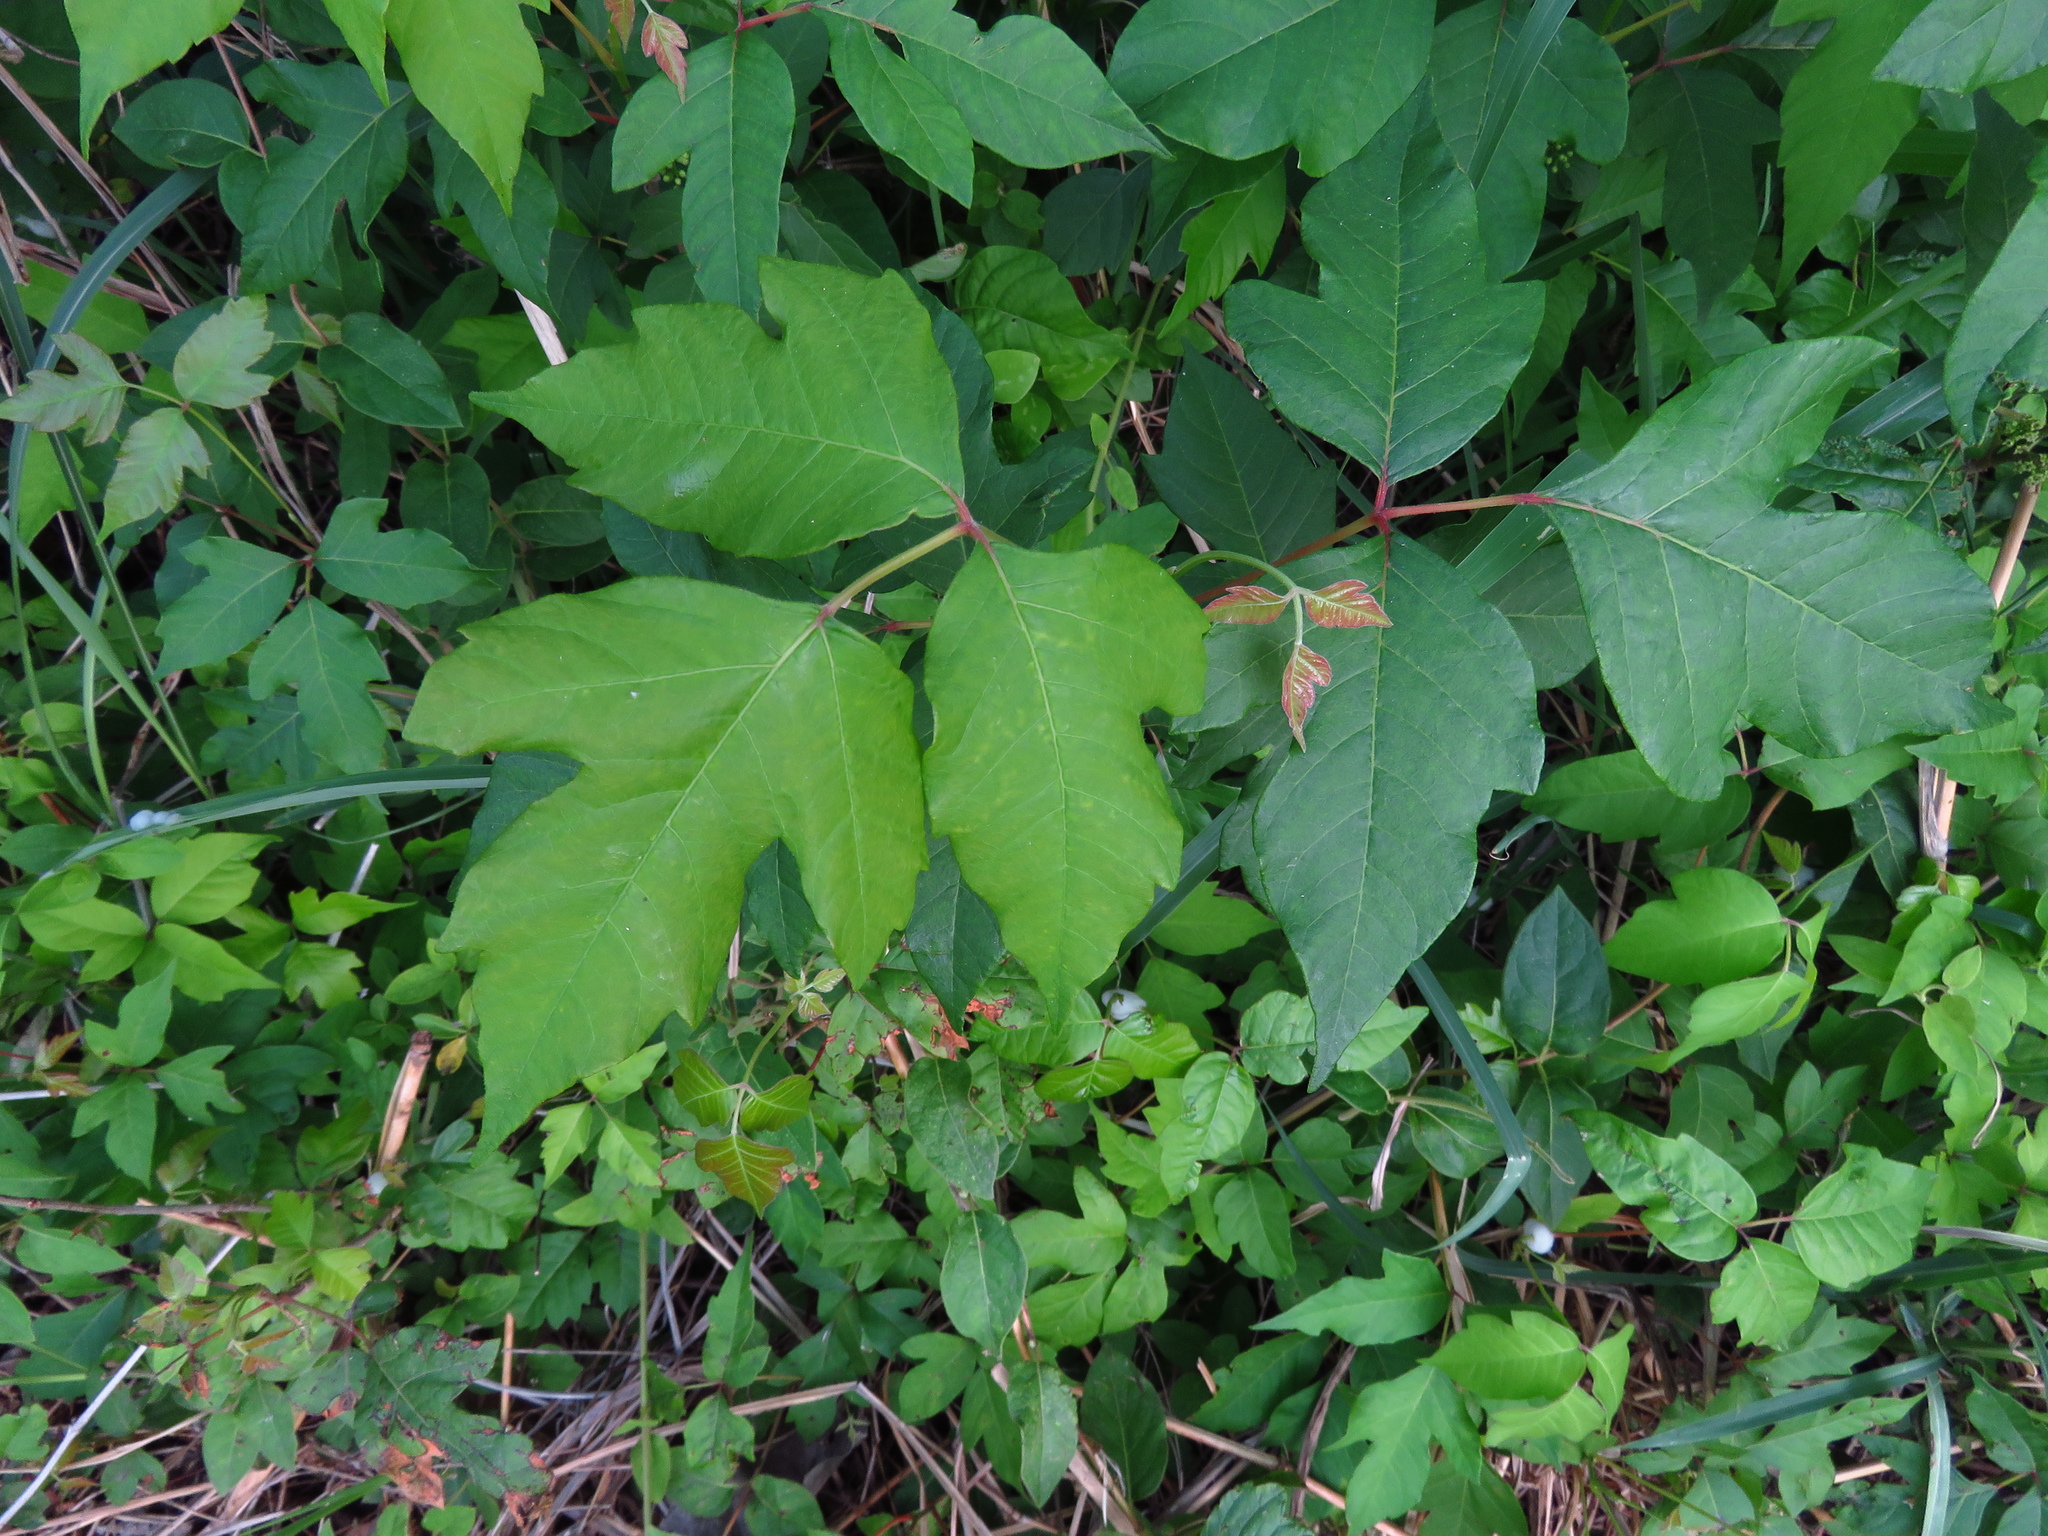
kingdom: Plantae
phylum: Tracheophyta
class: Magnoliopsida
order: Sapindales
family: Anacardiaceae
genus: Toxicodendron
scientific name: Toxicodendron radicans
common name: Poison ivy
